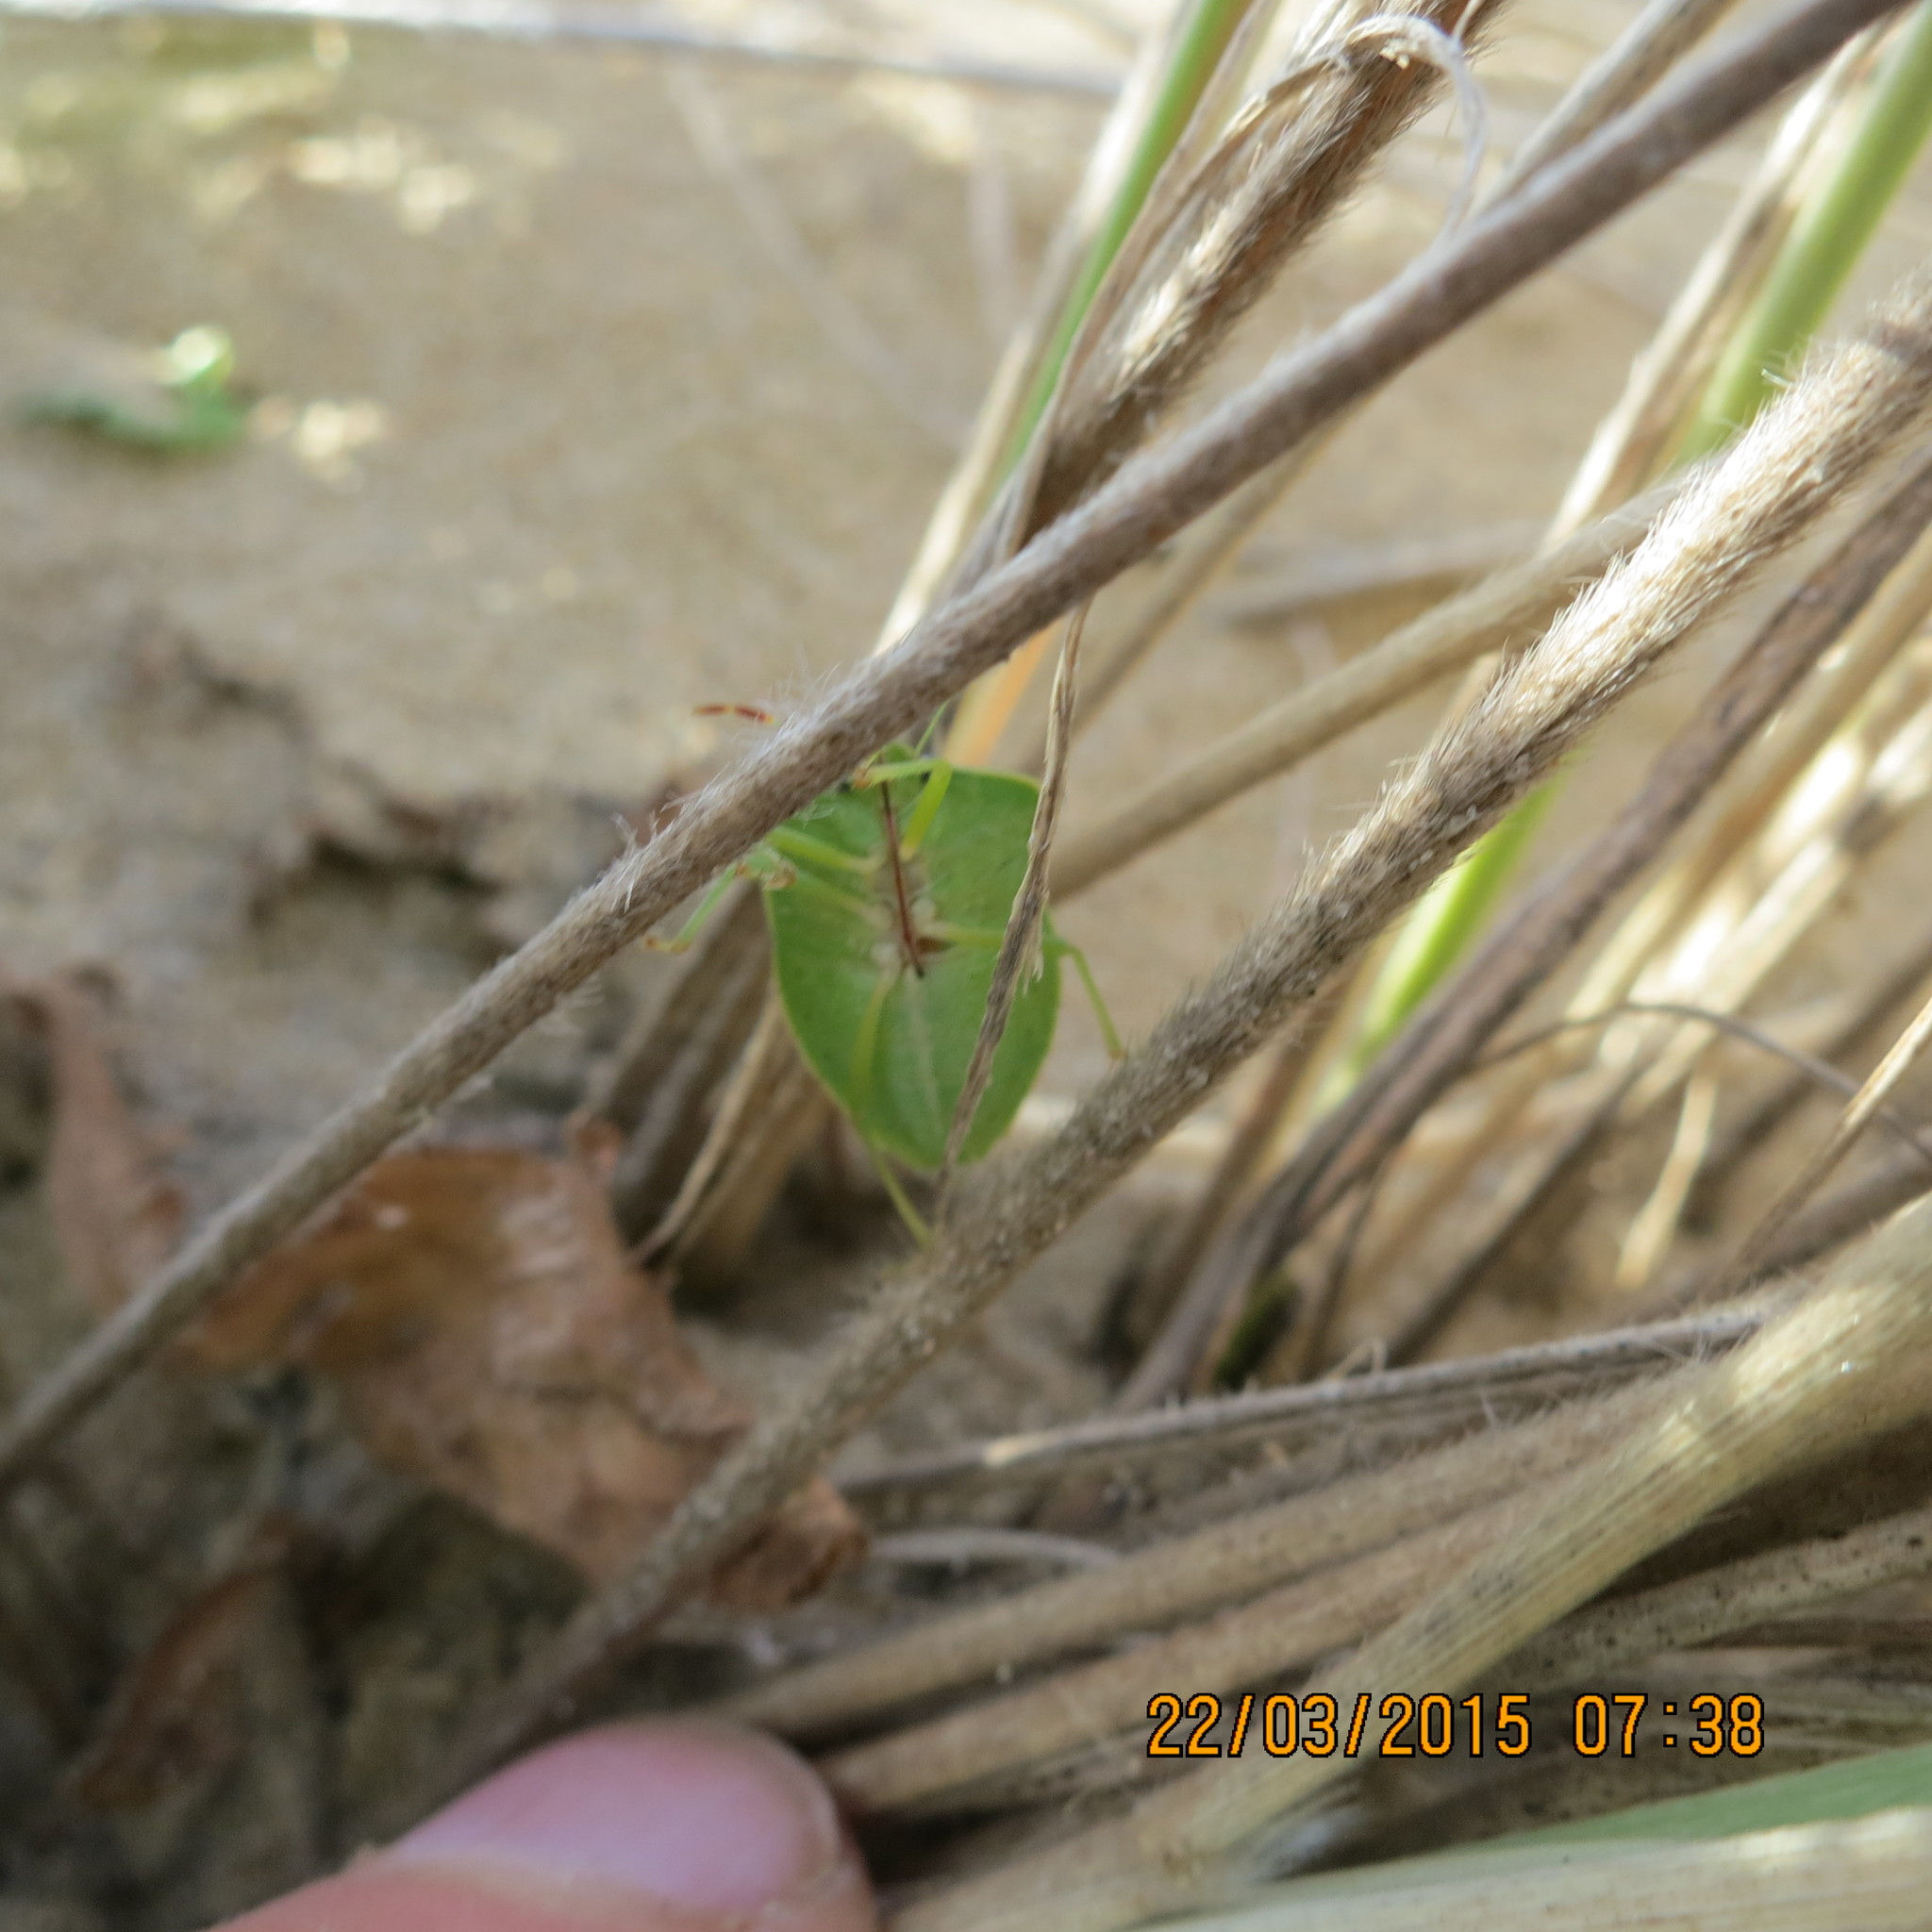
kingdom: Animalia
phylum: Arthropoda
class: Insecta
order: Hemiptera
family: Pentatomidae
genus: Nezara
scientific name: Nezara viridula
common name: Southern green stink bug
